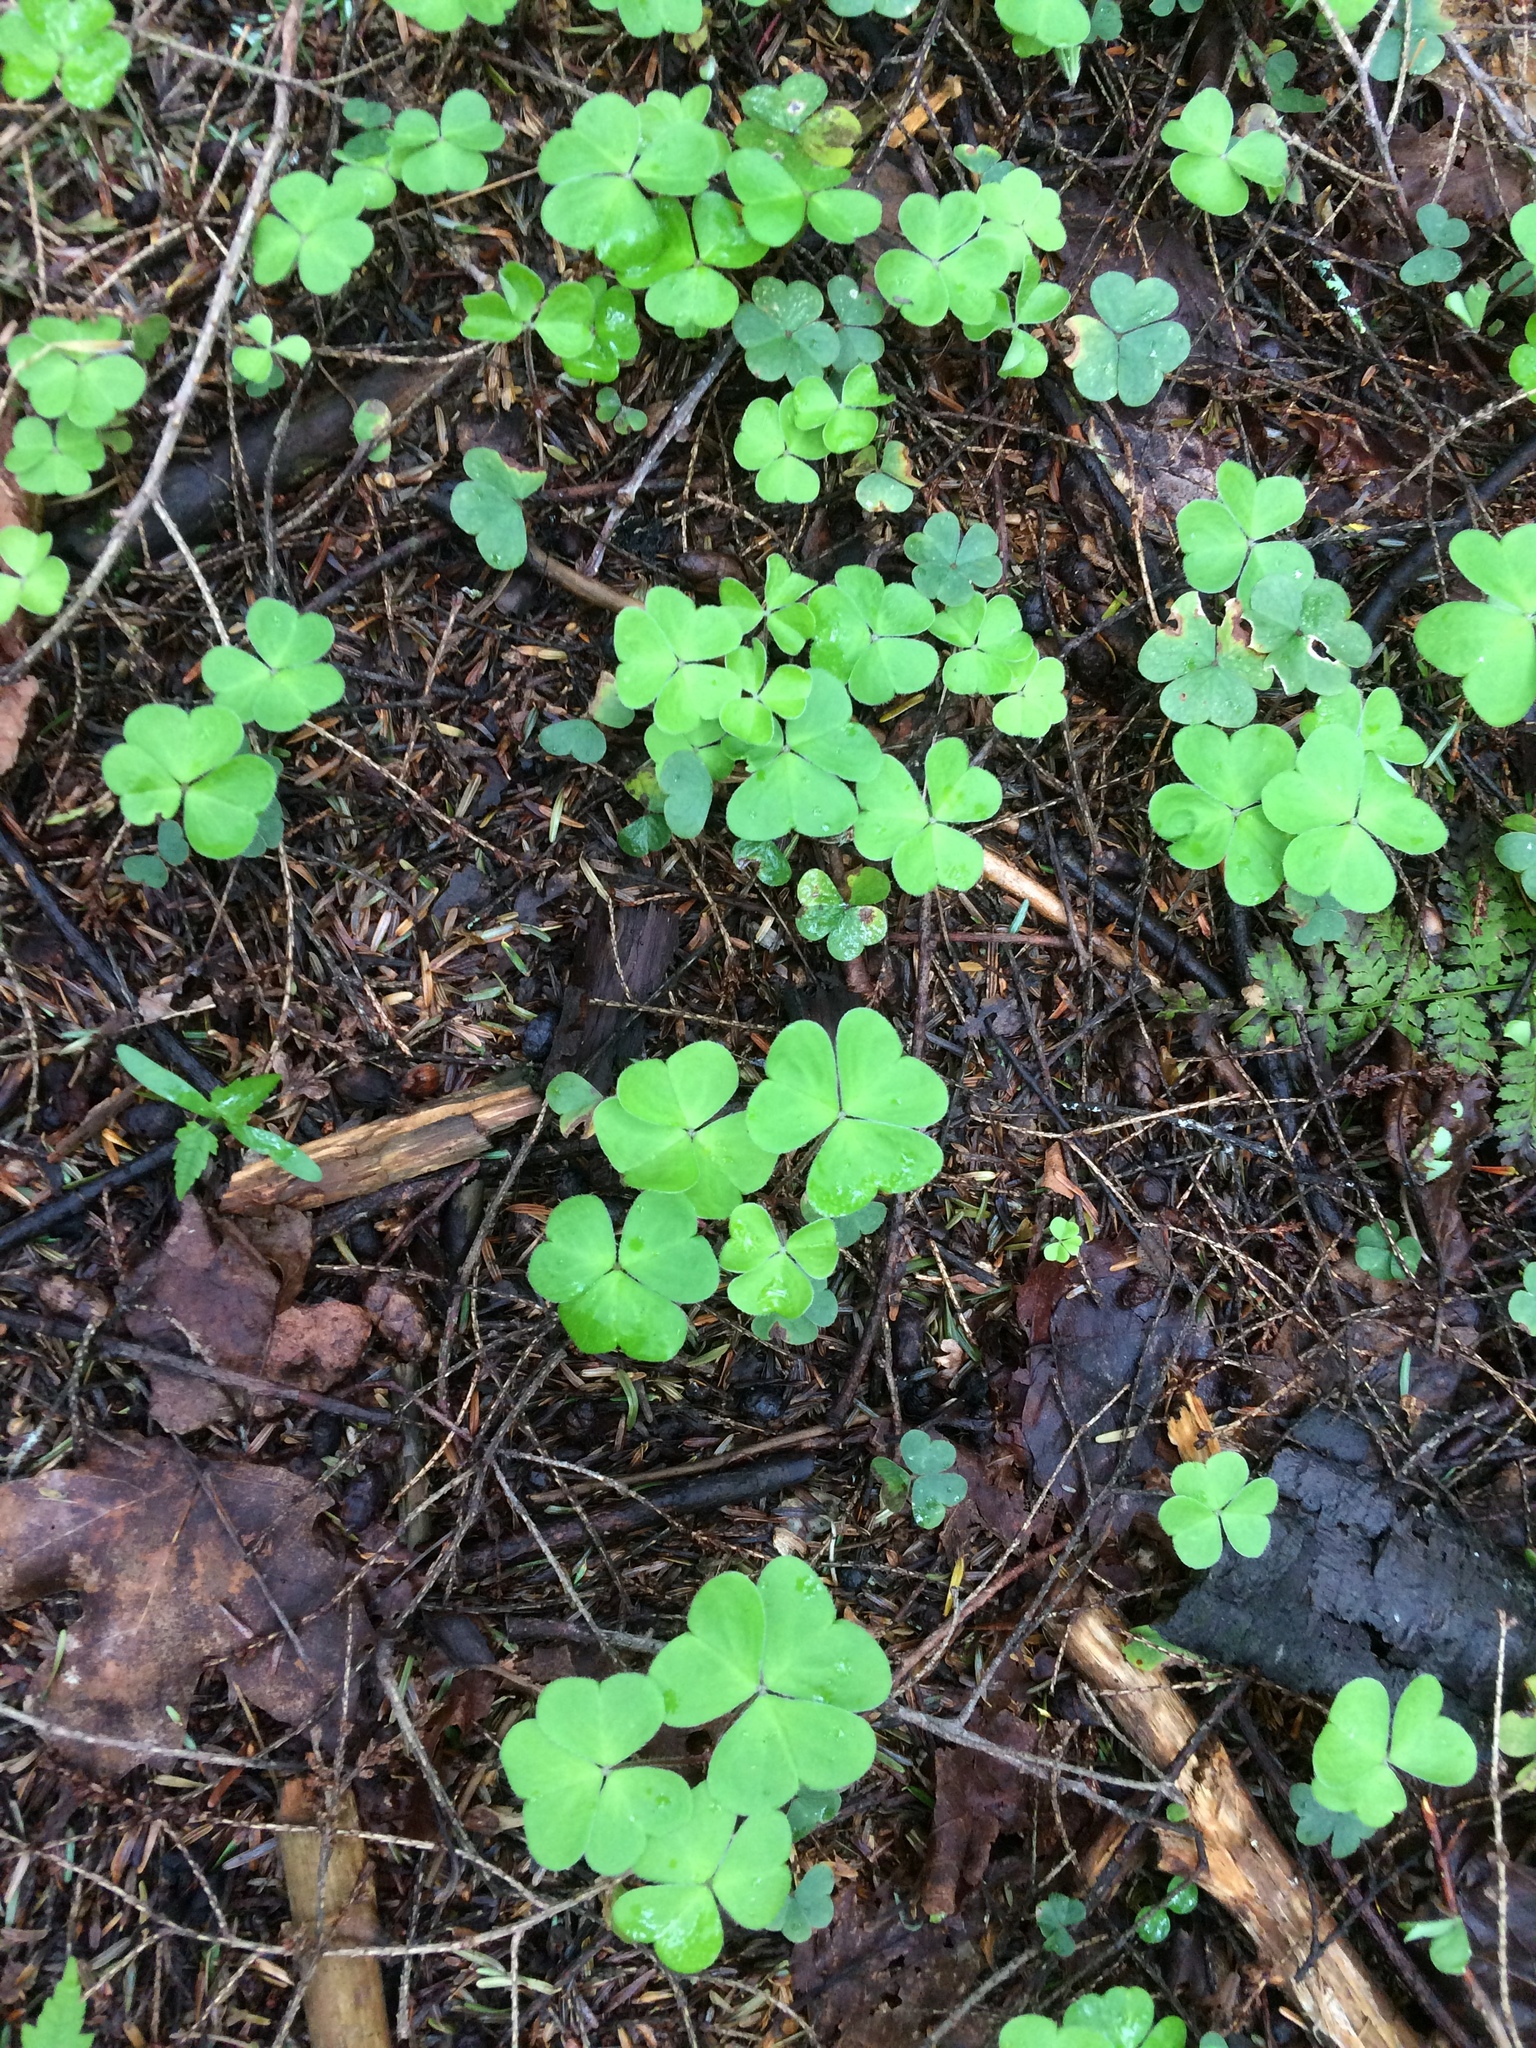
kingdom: Plantae
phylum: Tracheophyta
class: Magnoliopsida
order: Oxalidales
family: Oxalidaceae
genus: Oxalis
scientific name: Oxalis montana
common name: American wood-sorrel
